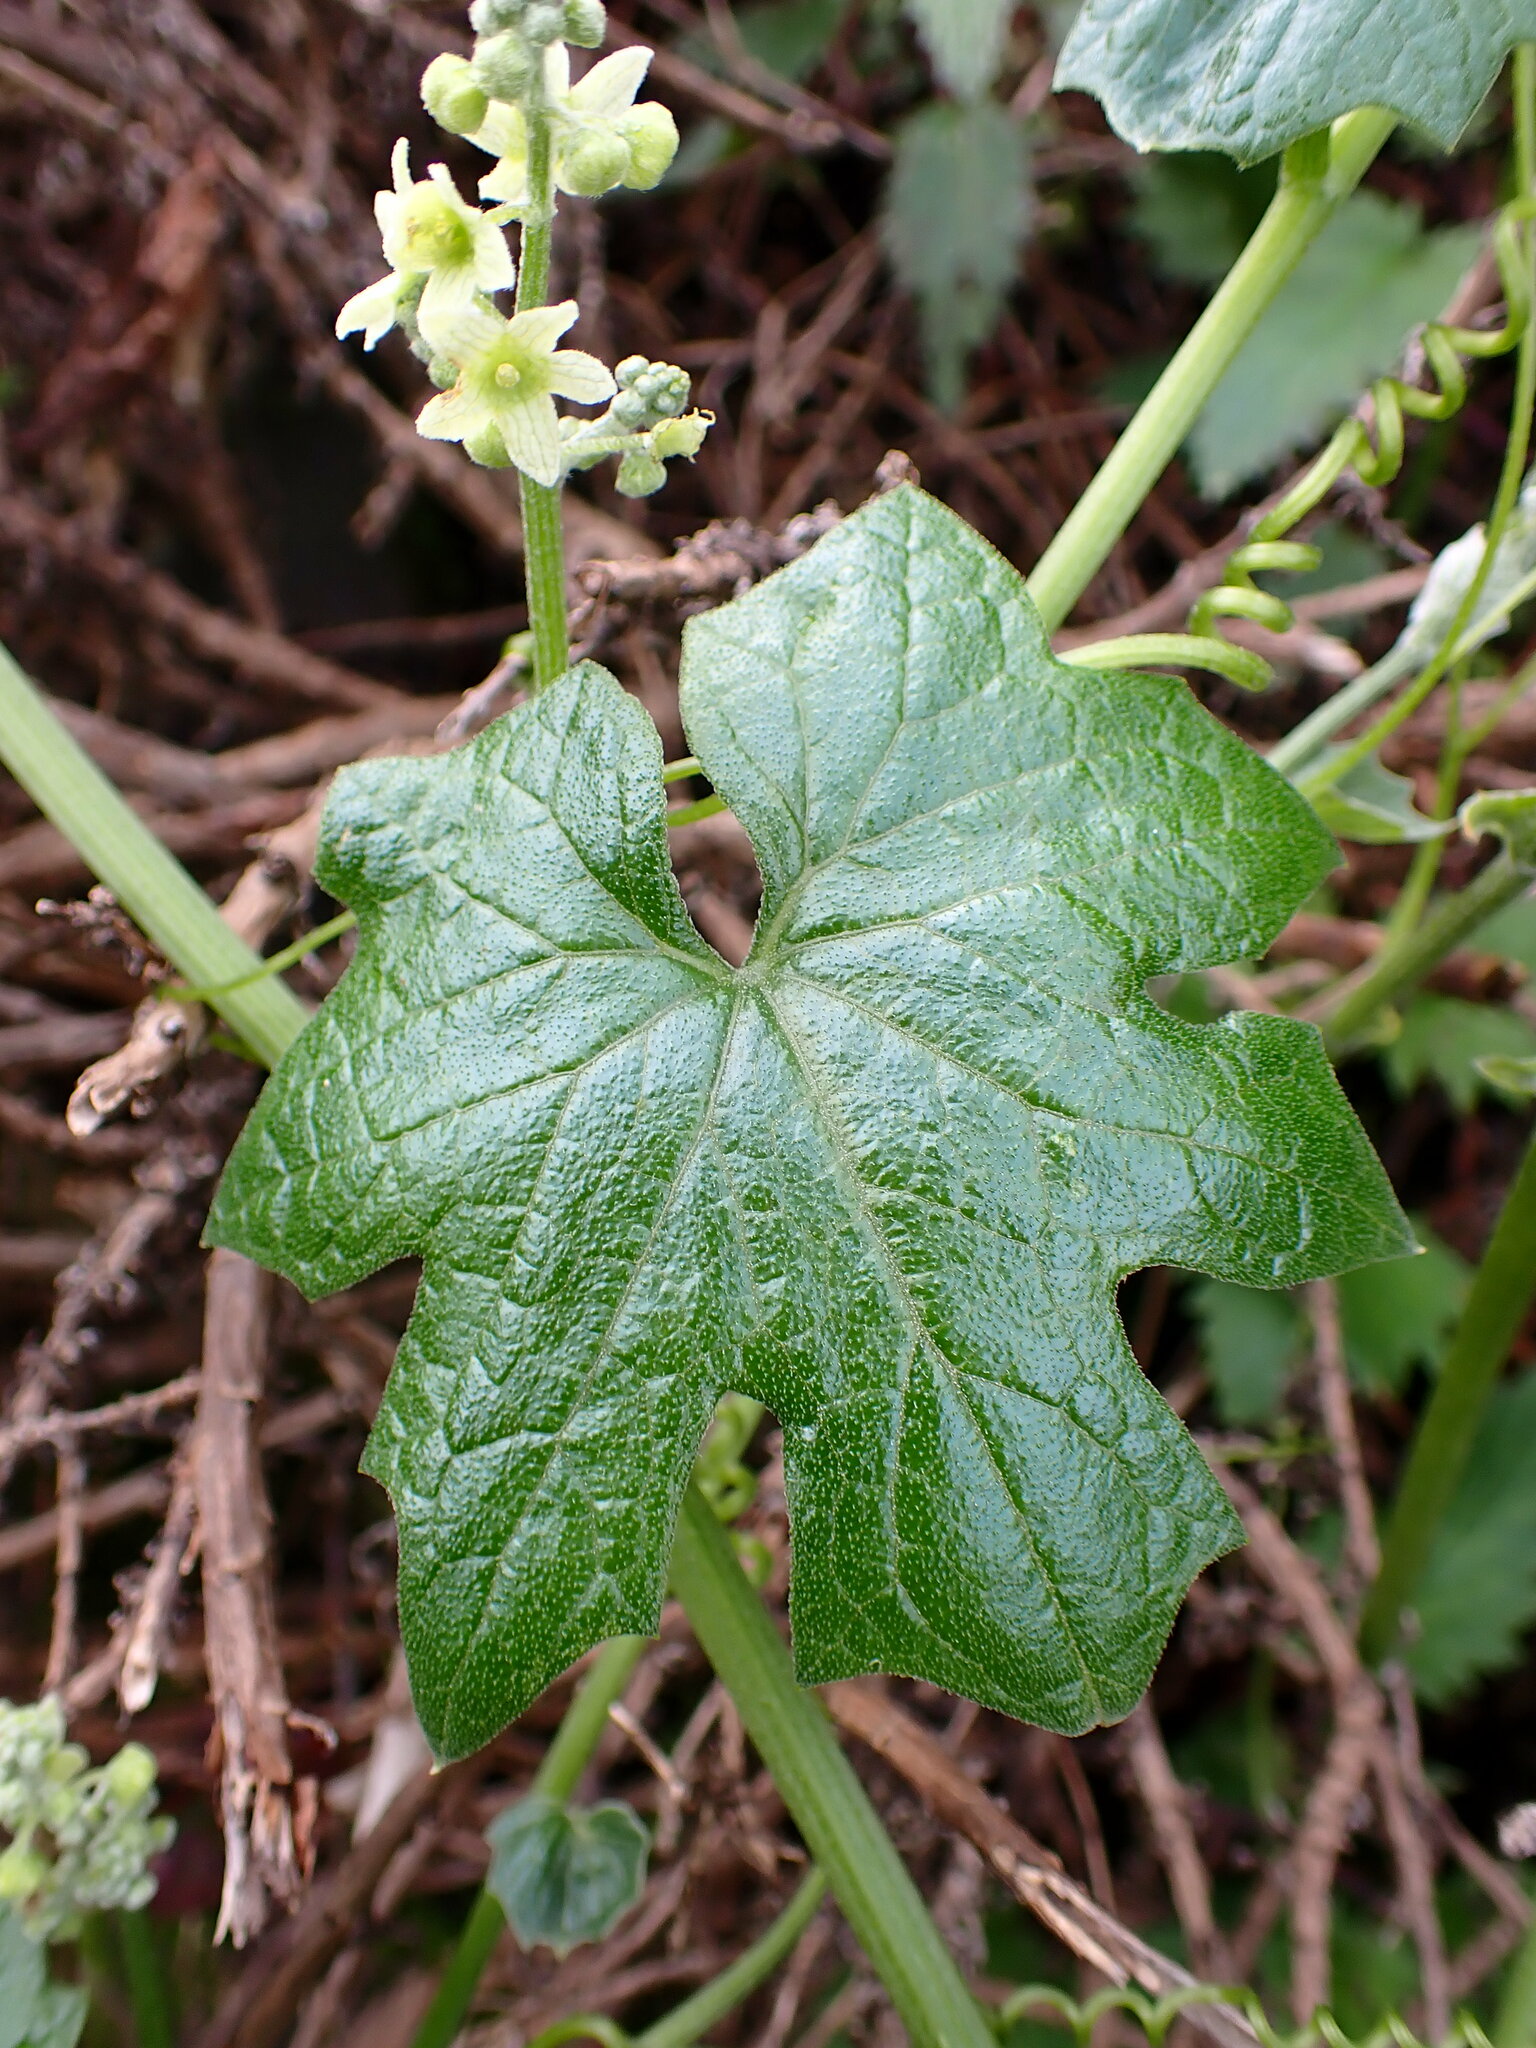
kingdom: Plantae
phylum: Tracheophyta
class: Magnoliopsida
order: Cucurbitales
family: Cucurbitaceae
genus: Marah
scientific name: Marah fabacea
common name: California manroot
